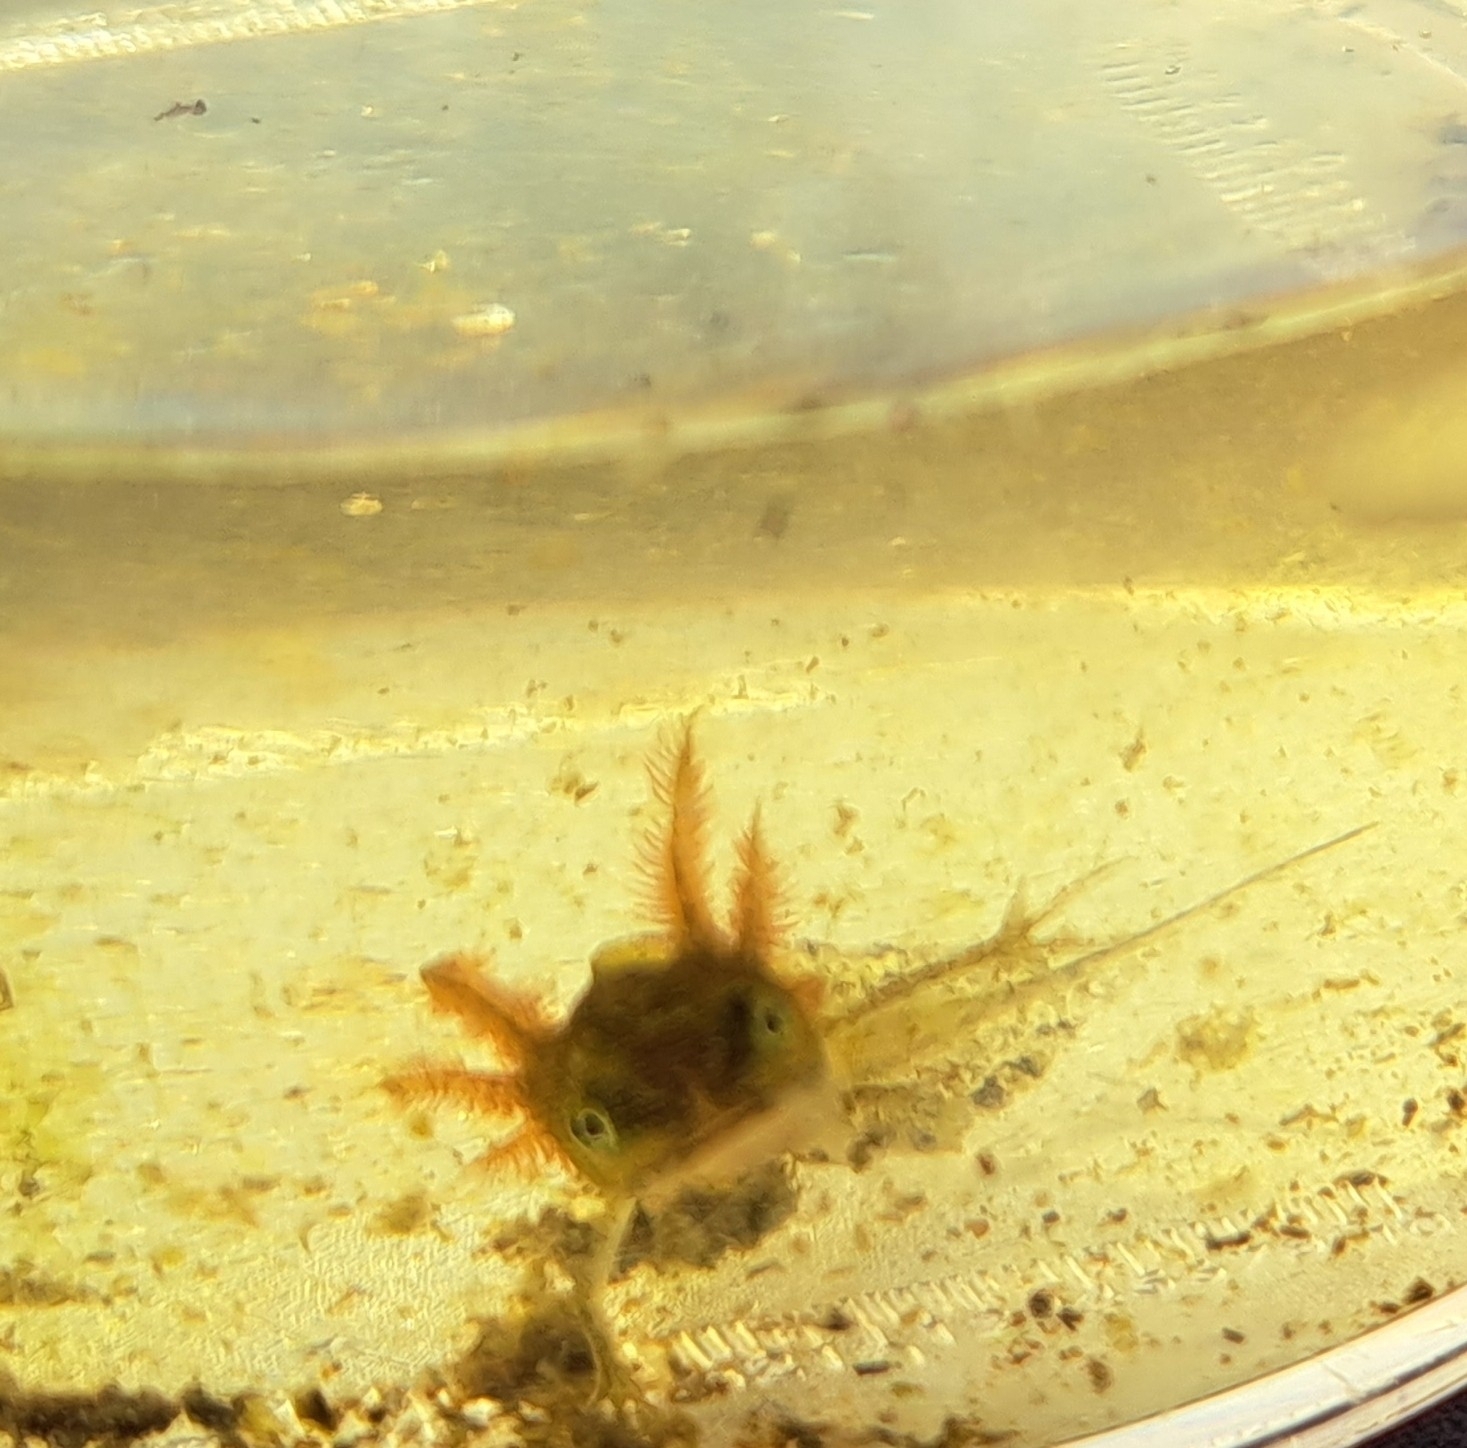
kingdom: Animalia
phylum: Chordata
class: Amphibia
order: Caudata
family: Salamandridae
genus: Triturus
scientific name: Triturus cristatus
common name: Crested newt
